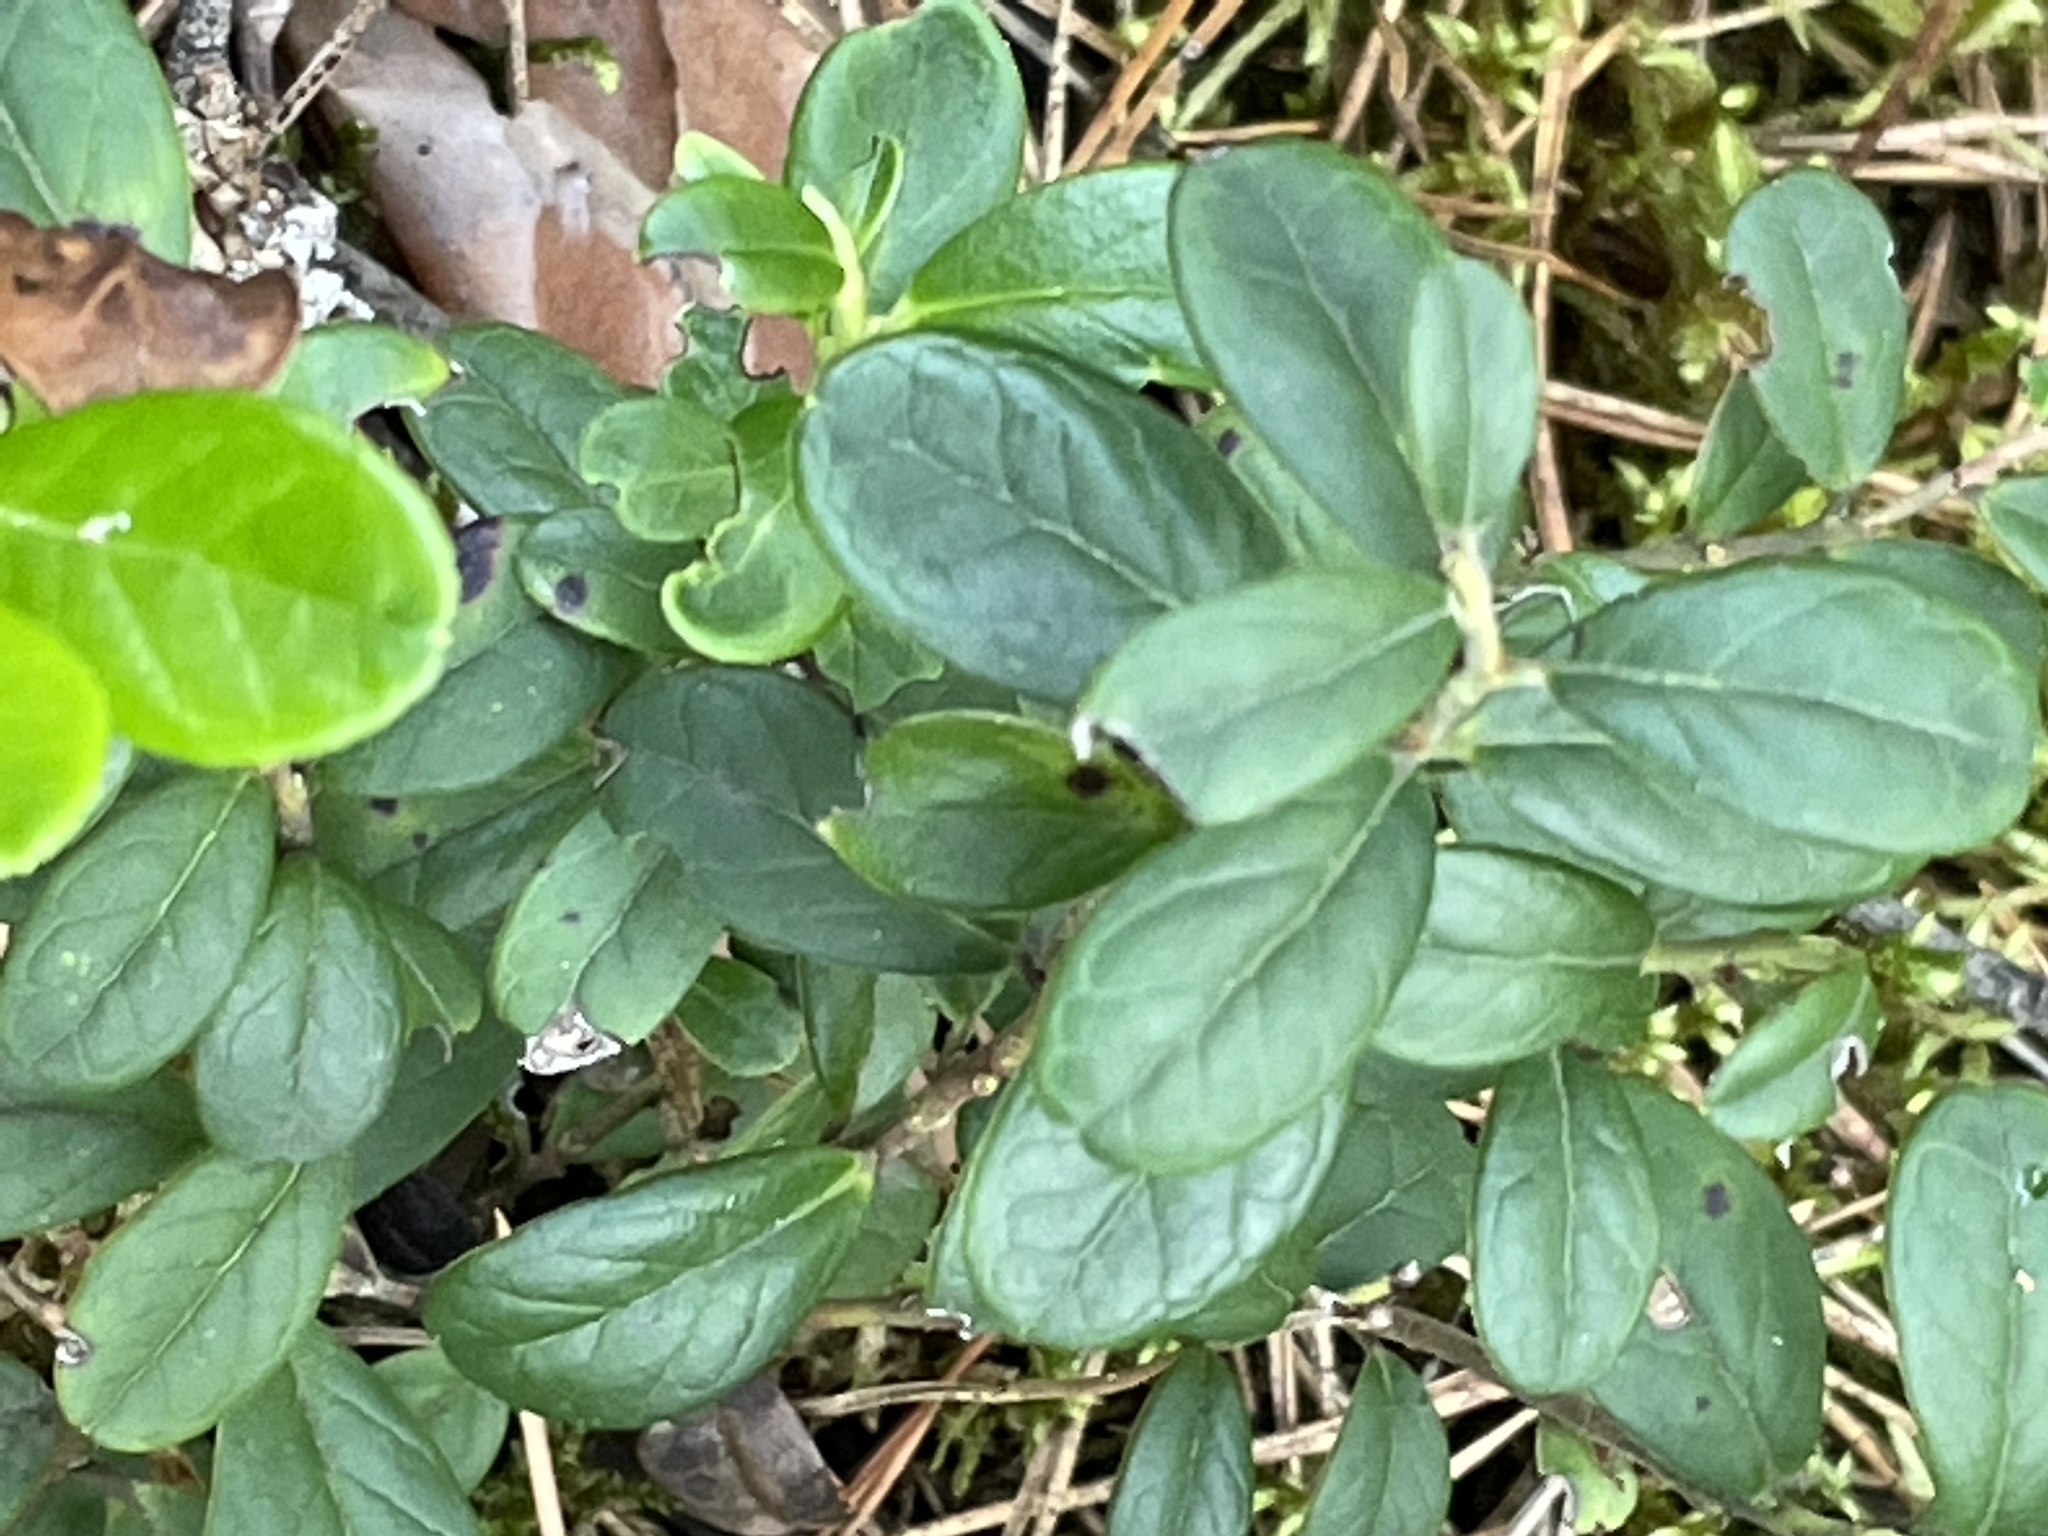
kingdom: Plantae
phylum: Tracheophyta
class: Magnoliopsida
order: Ericales
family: Ericaceae
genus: Vaccinium
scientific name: Vaccinium vitis-idaea
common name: Cowberry
